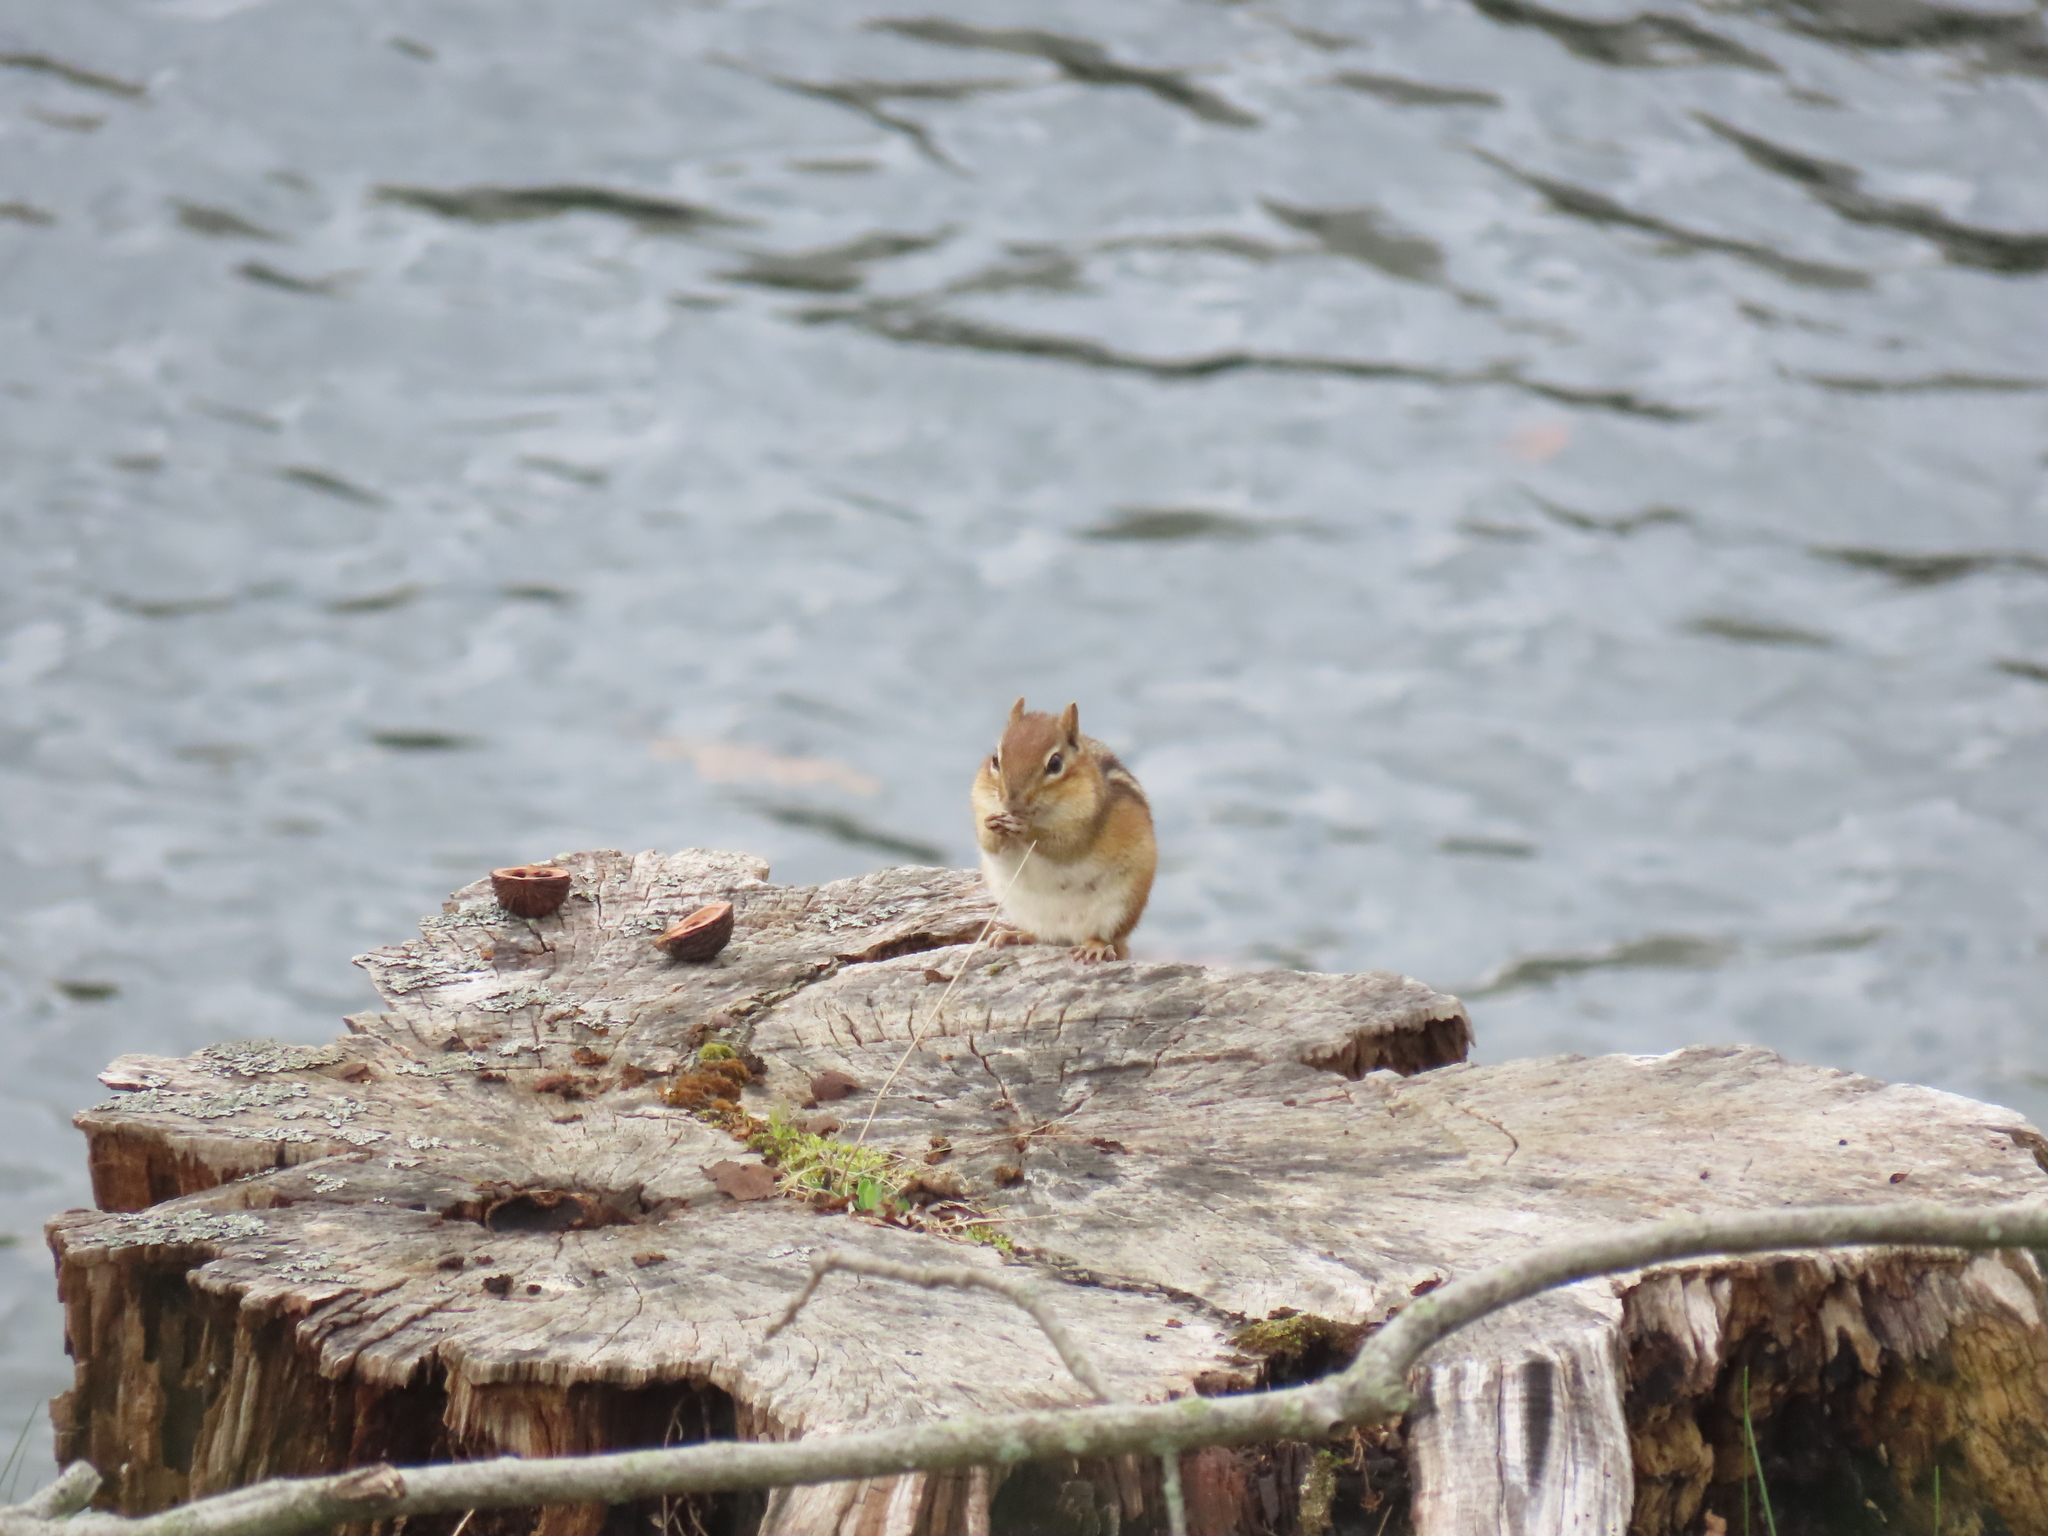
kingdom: Animalia
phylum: Chordata
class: Mammalia
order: Rodentia
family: Sciuridae
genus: Tamias
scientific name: Tamias striatus
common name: Eastern chipmunk
